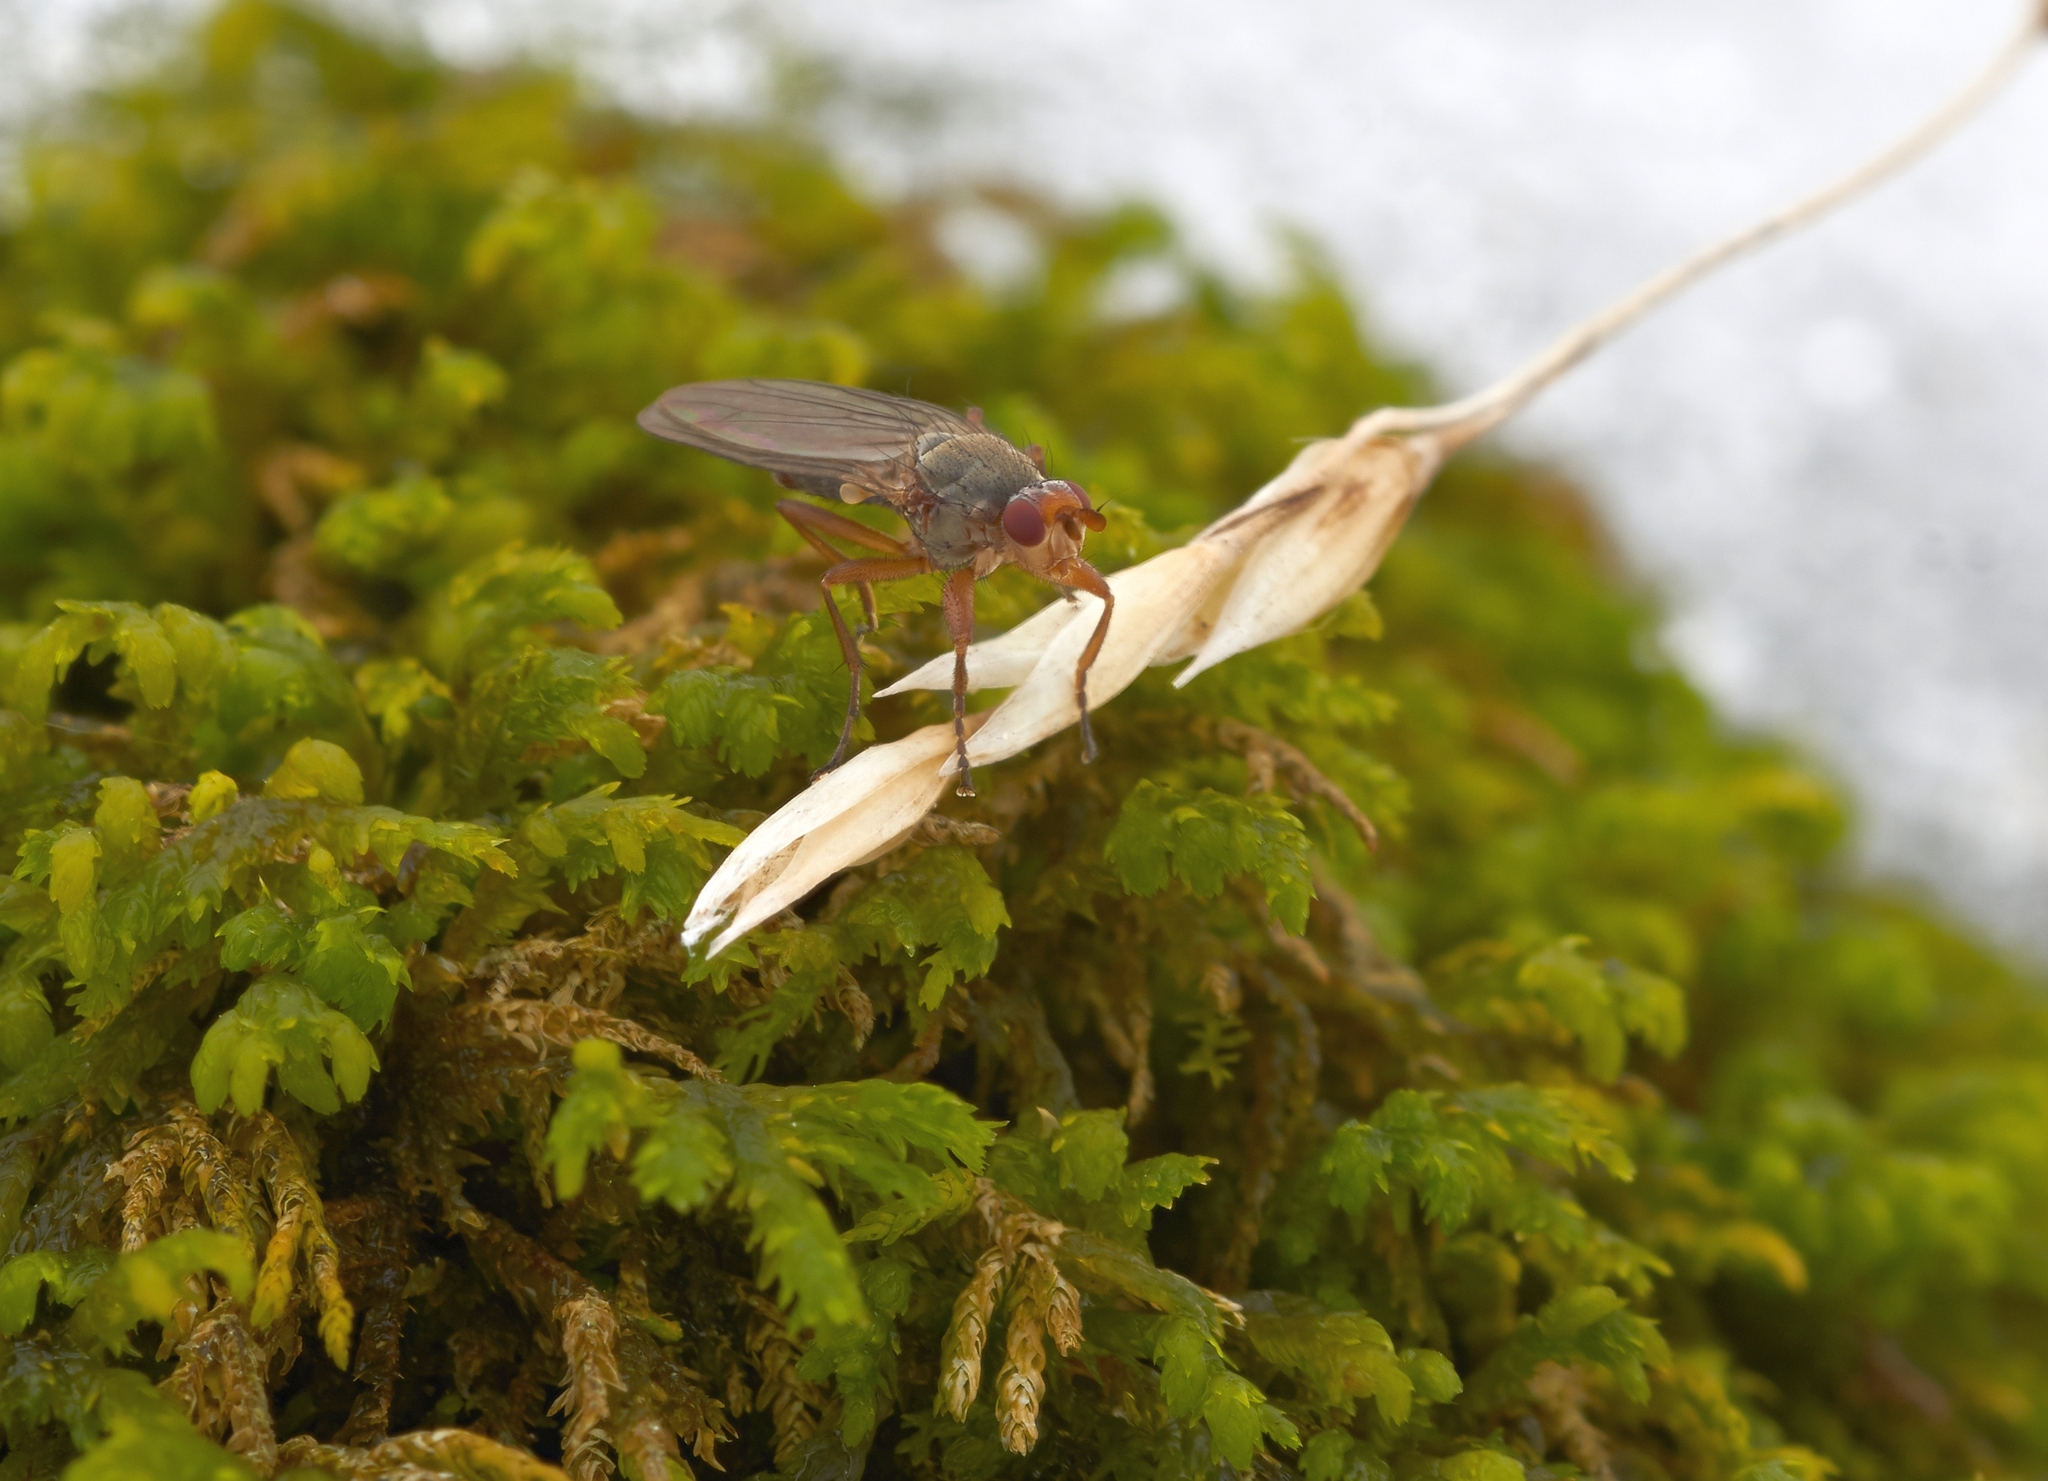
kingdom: Animalia
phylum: Arthropoda
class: Insecta
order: Diptera
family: Heleomyzidae
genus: Orbellia
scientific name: Orbellia barbata
